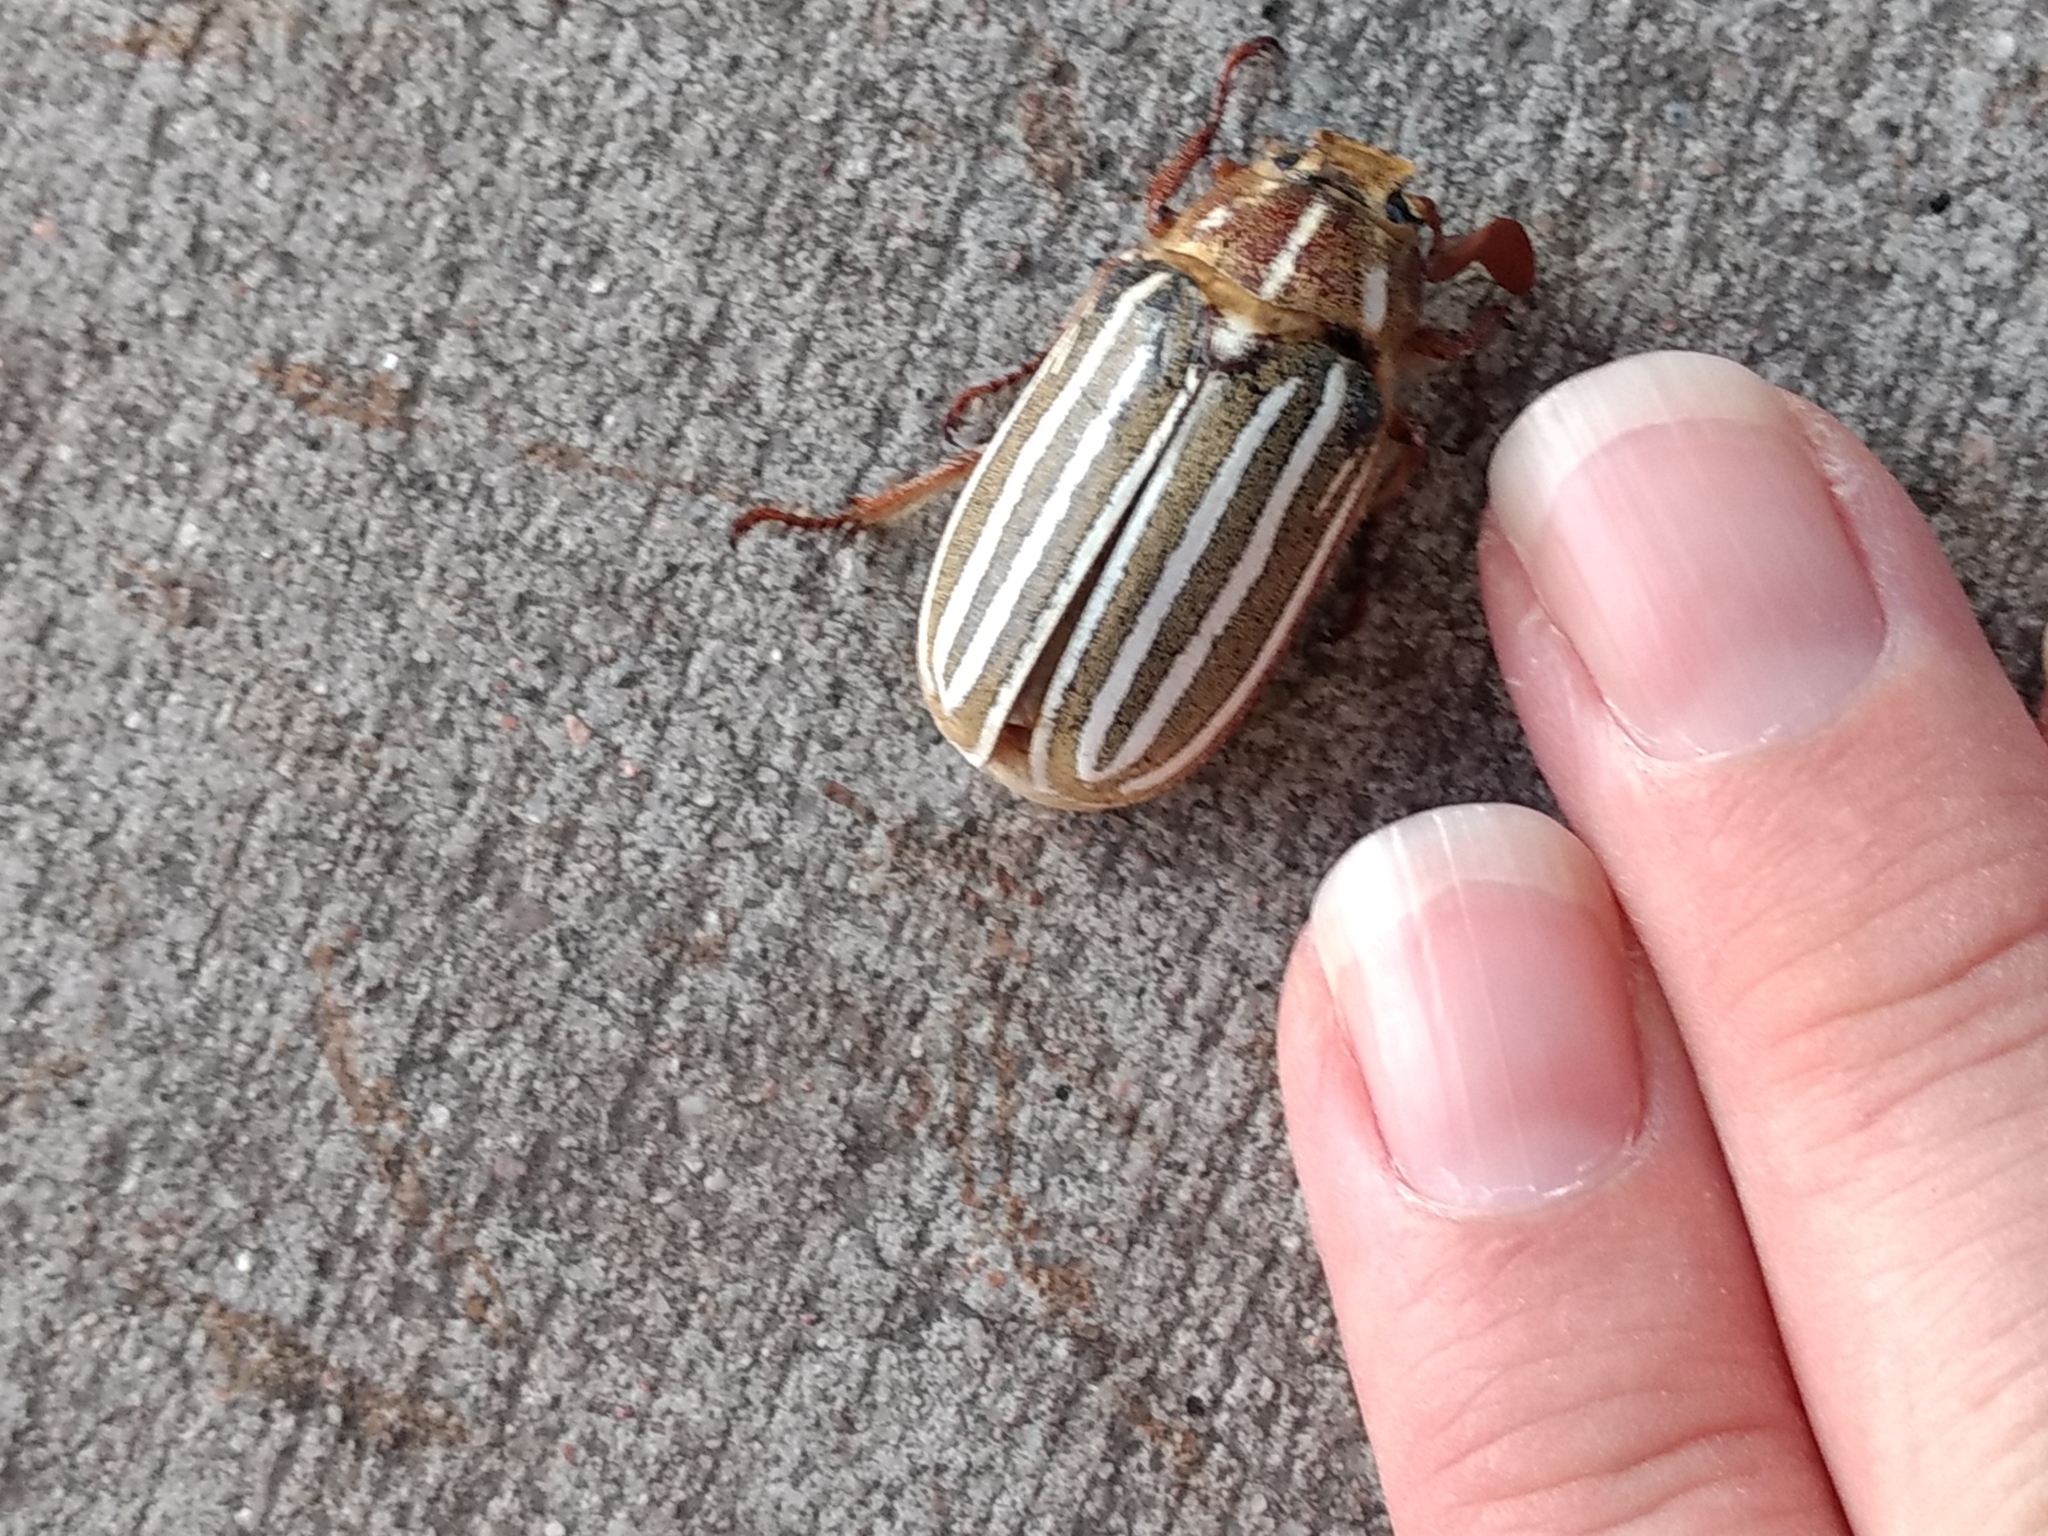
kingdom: Animalia
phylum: Arthropoda
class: Insecta
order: Coleoptera
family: Scarabaeidae
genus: Polyphylla
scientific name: Polyphylla decemlineata
